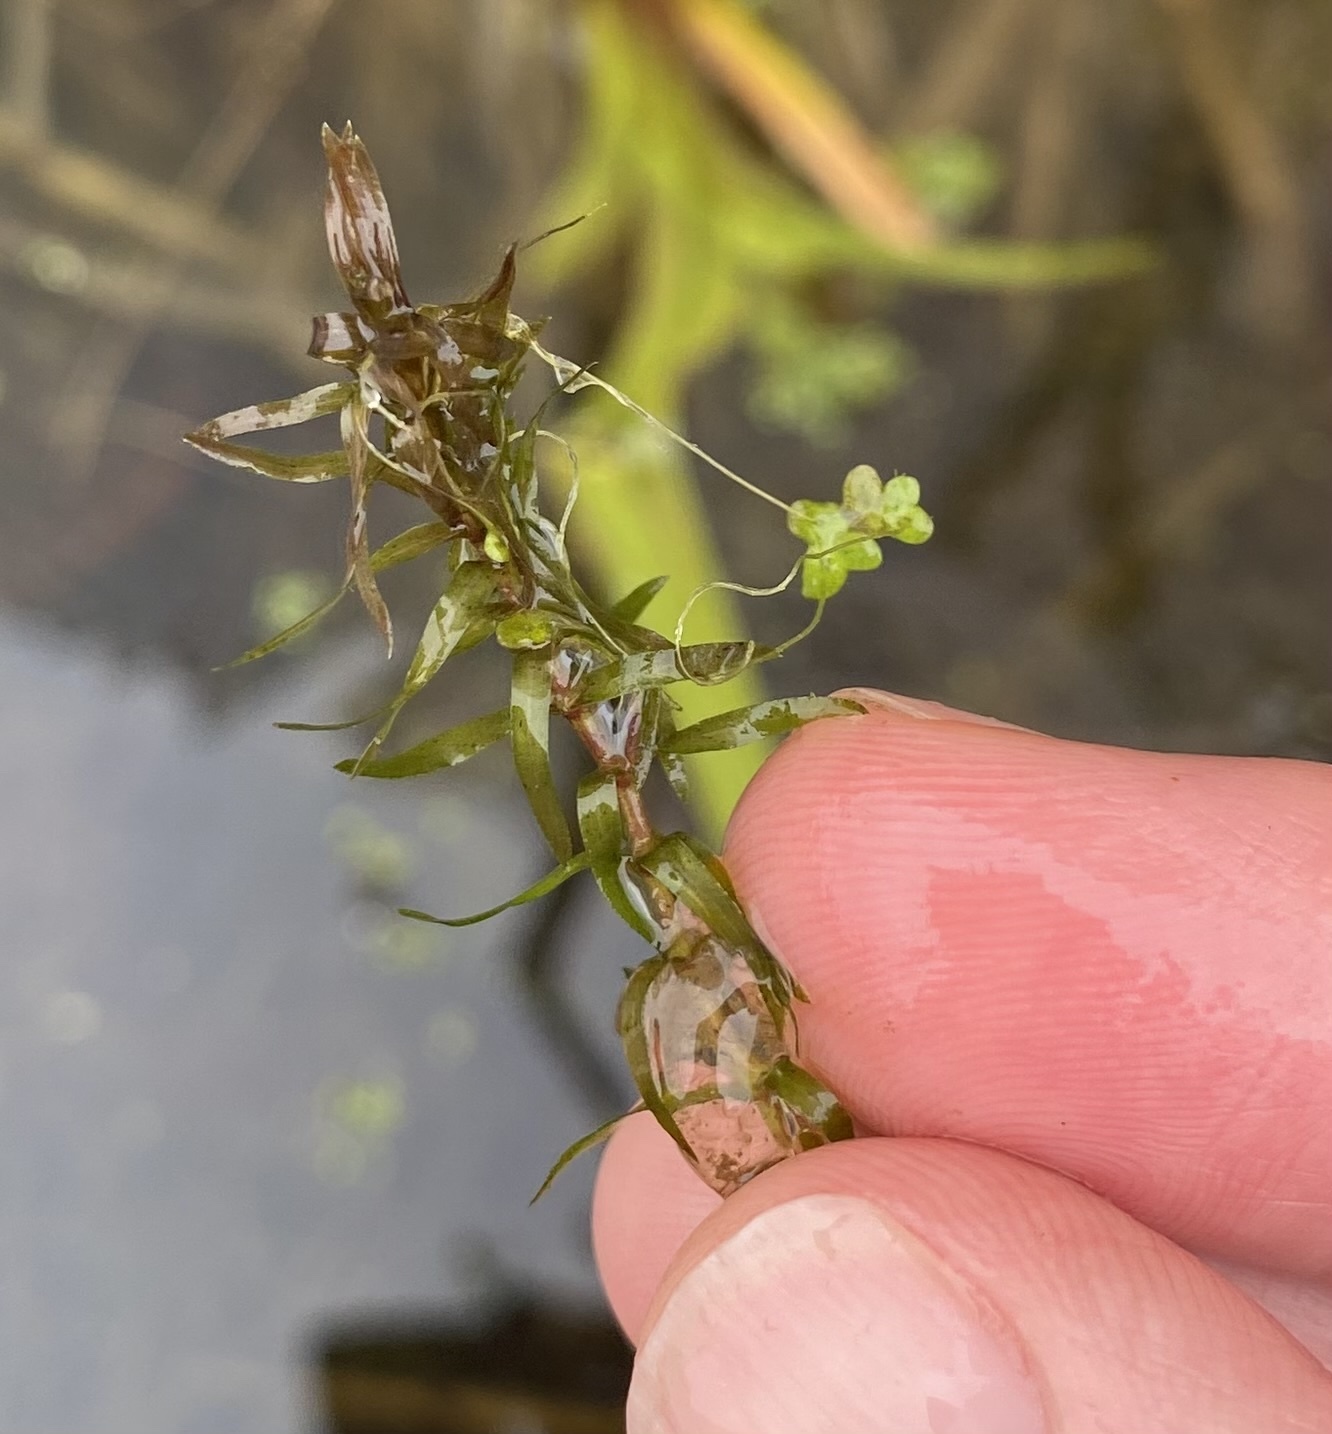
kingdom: Plantae
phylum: Tracheophyta
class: Liliopsida
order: Alismatales
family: Hydrocharitaceae
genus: Elodea
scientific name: Elodea nuttallii
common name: Nuttall's waterweed
